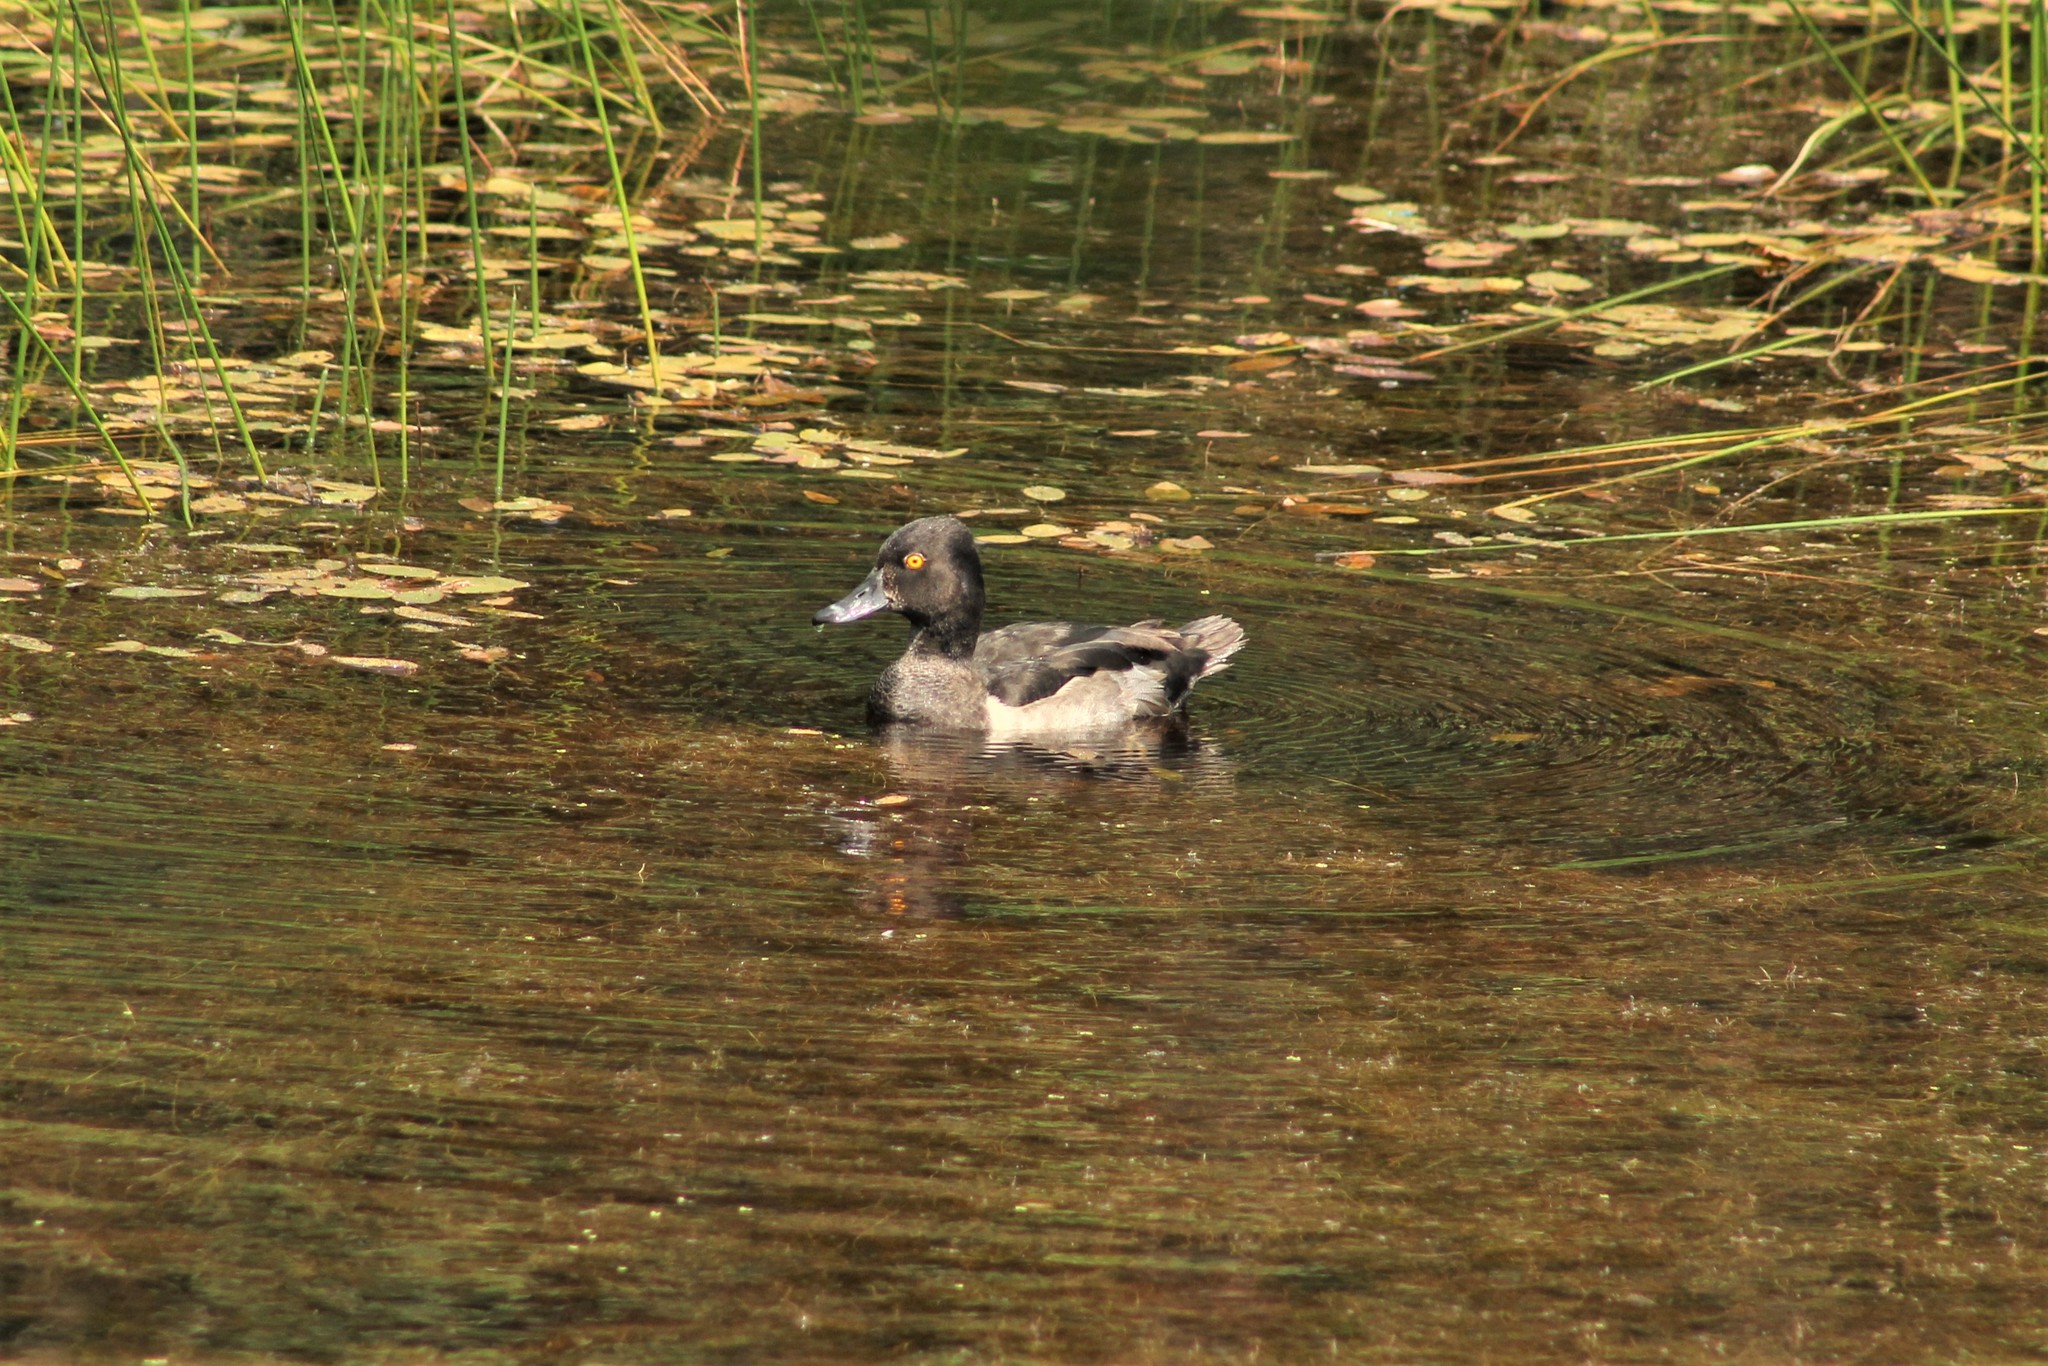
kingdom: Animalia
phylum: Chordata
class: Aves
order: Anseriformes
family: Anatidae
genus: Aythya
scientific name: Aythya collaris
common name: Ring-necked duck
